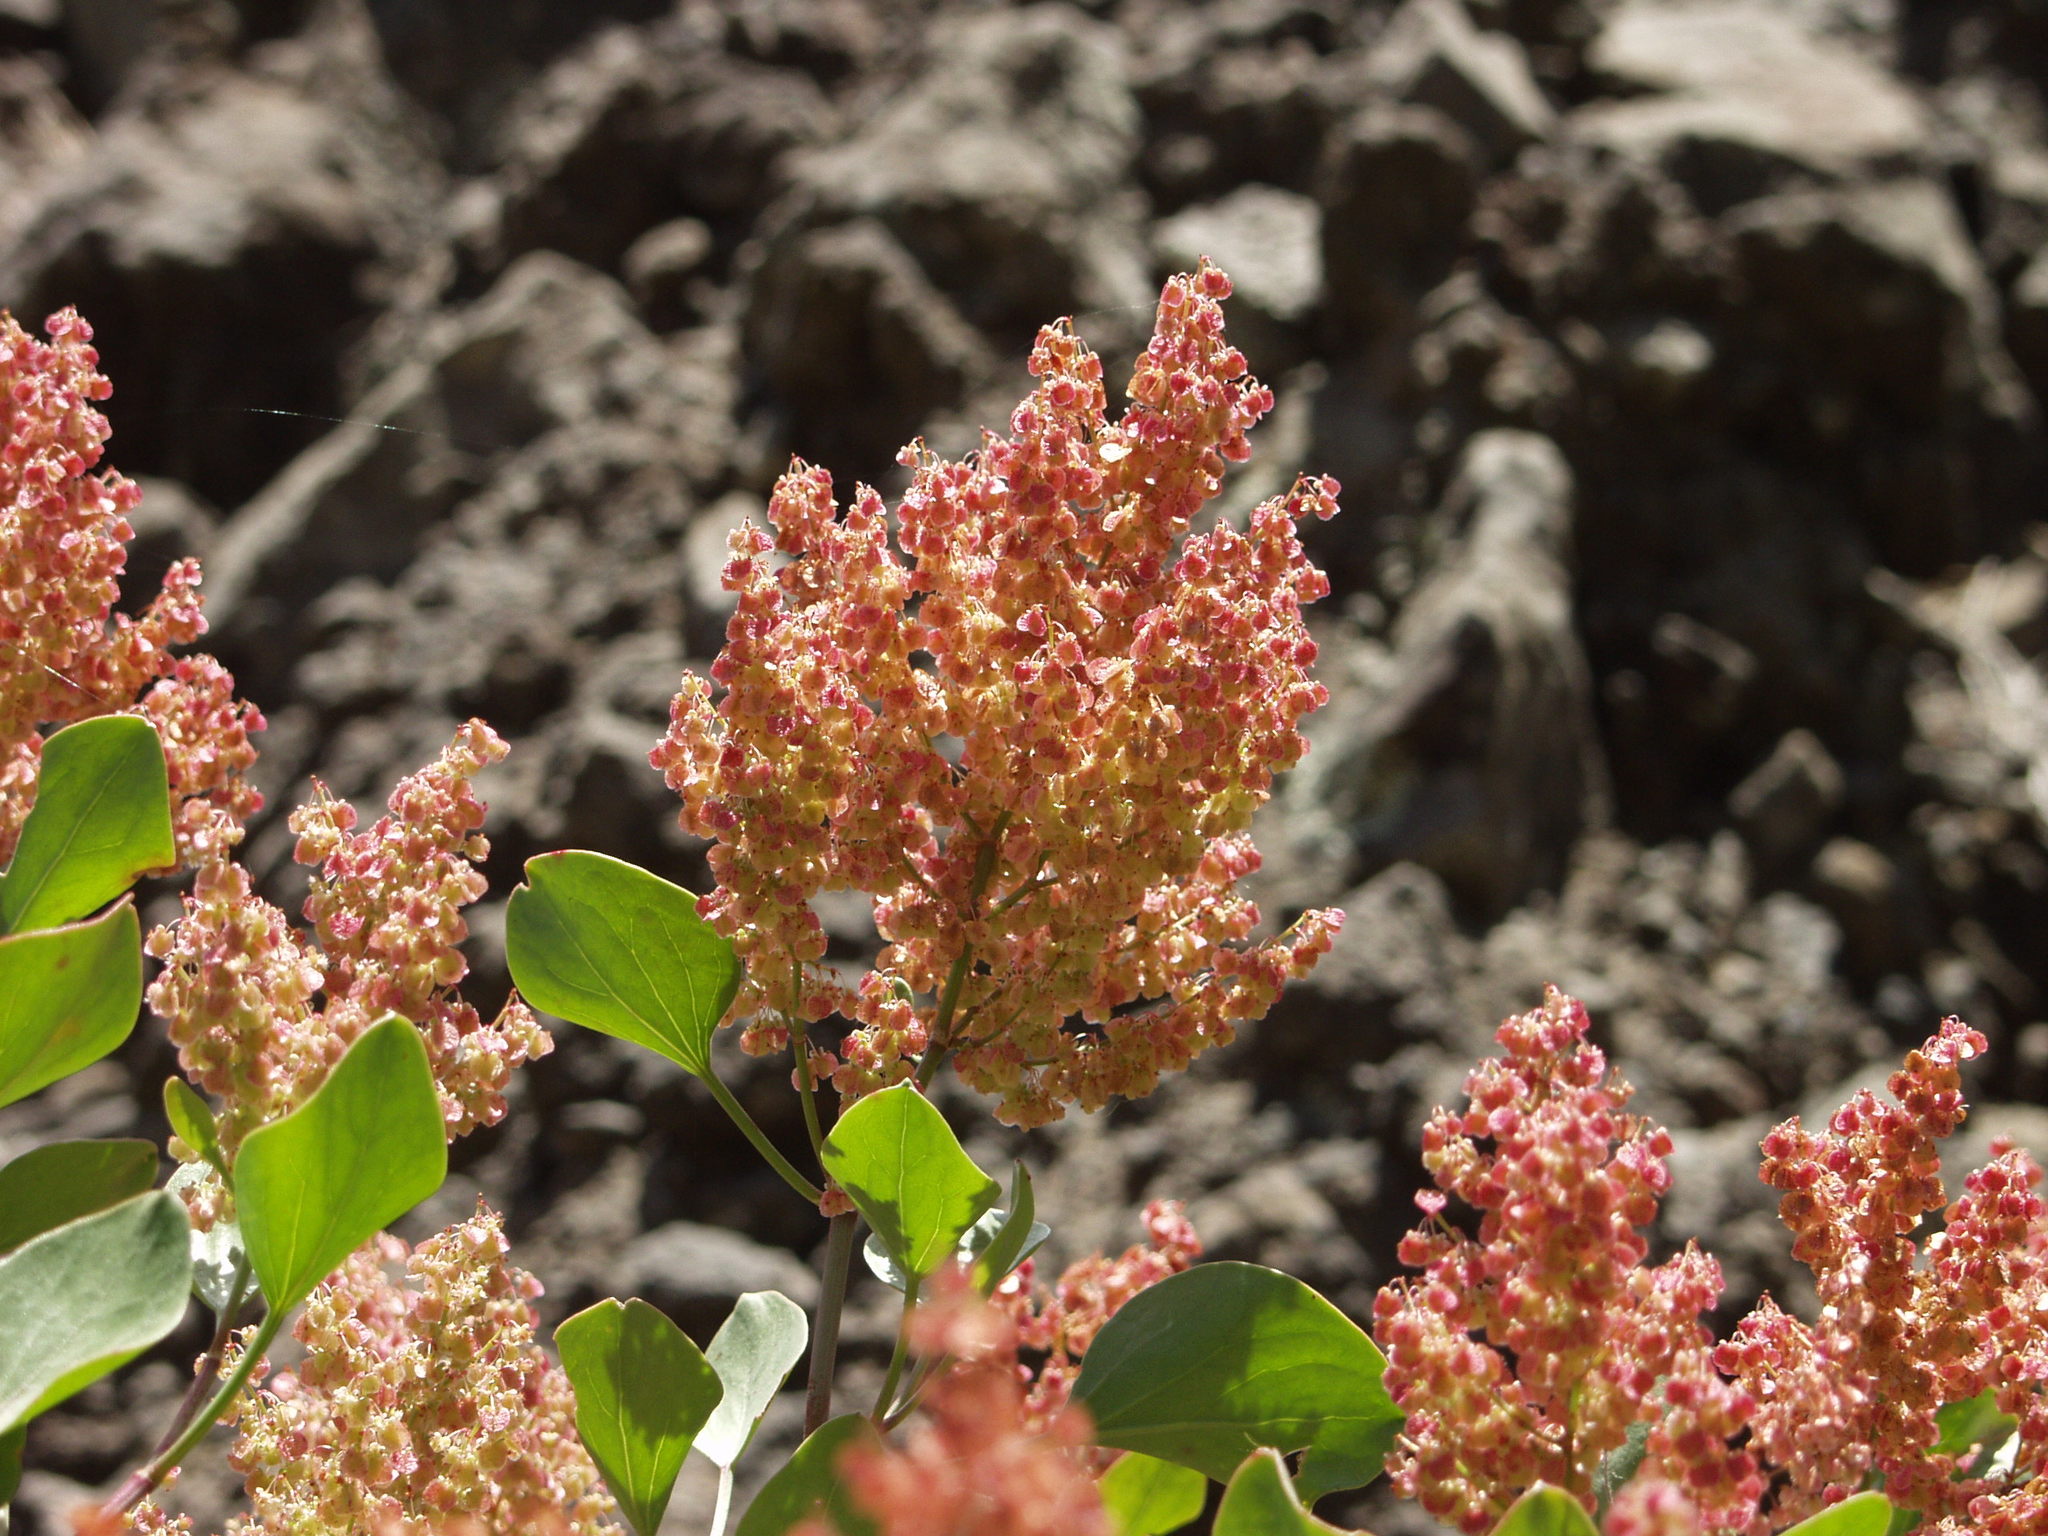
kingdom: Plantae
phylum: Tracheophyta
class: Magnoliopsida
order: Caryophyllales
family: Polygonaceae
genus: Rumex
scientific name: Rumex lunaria
